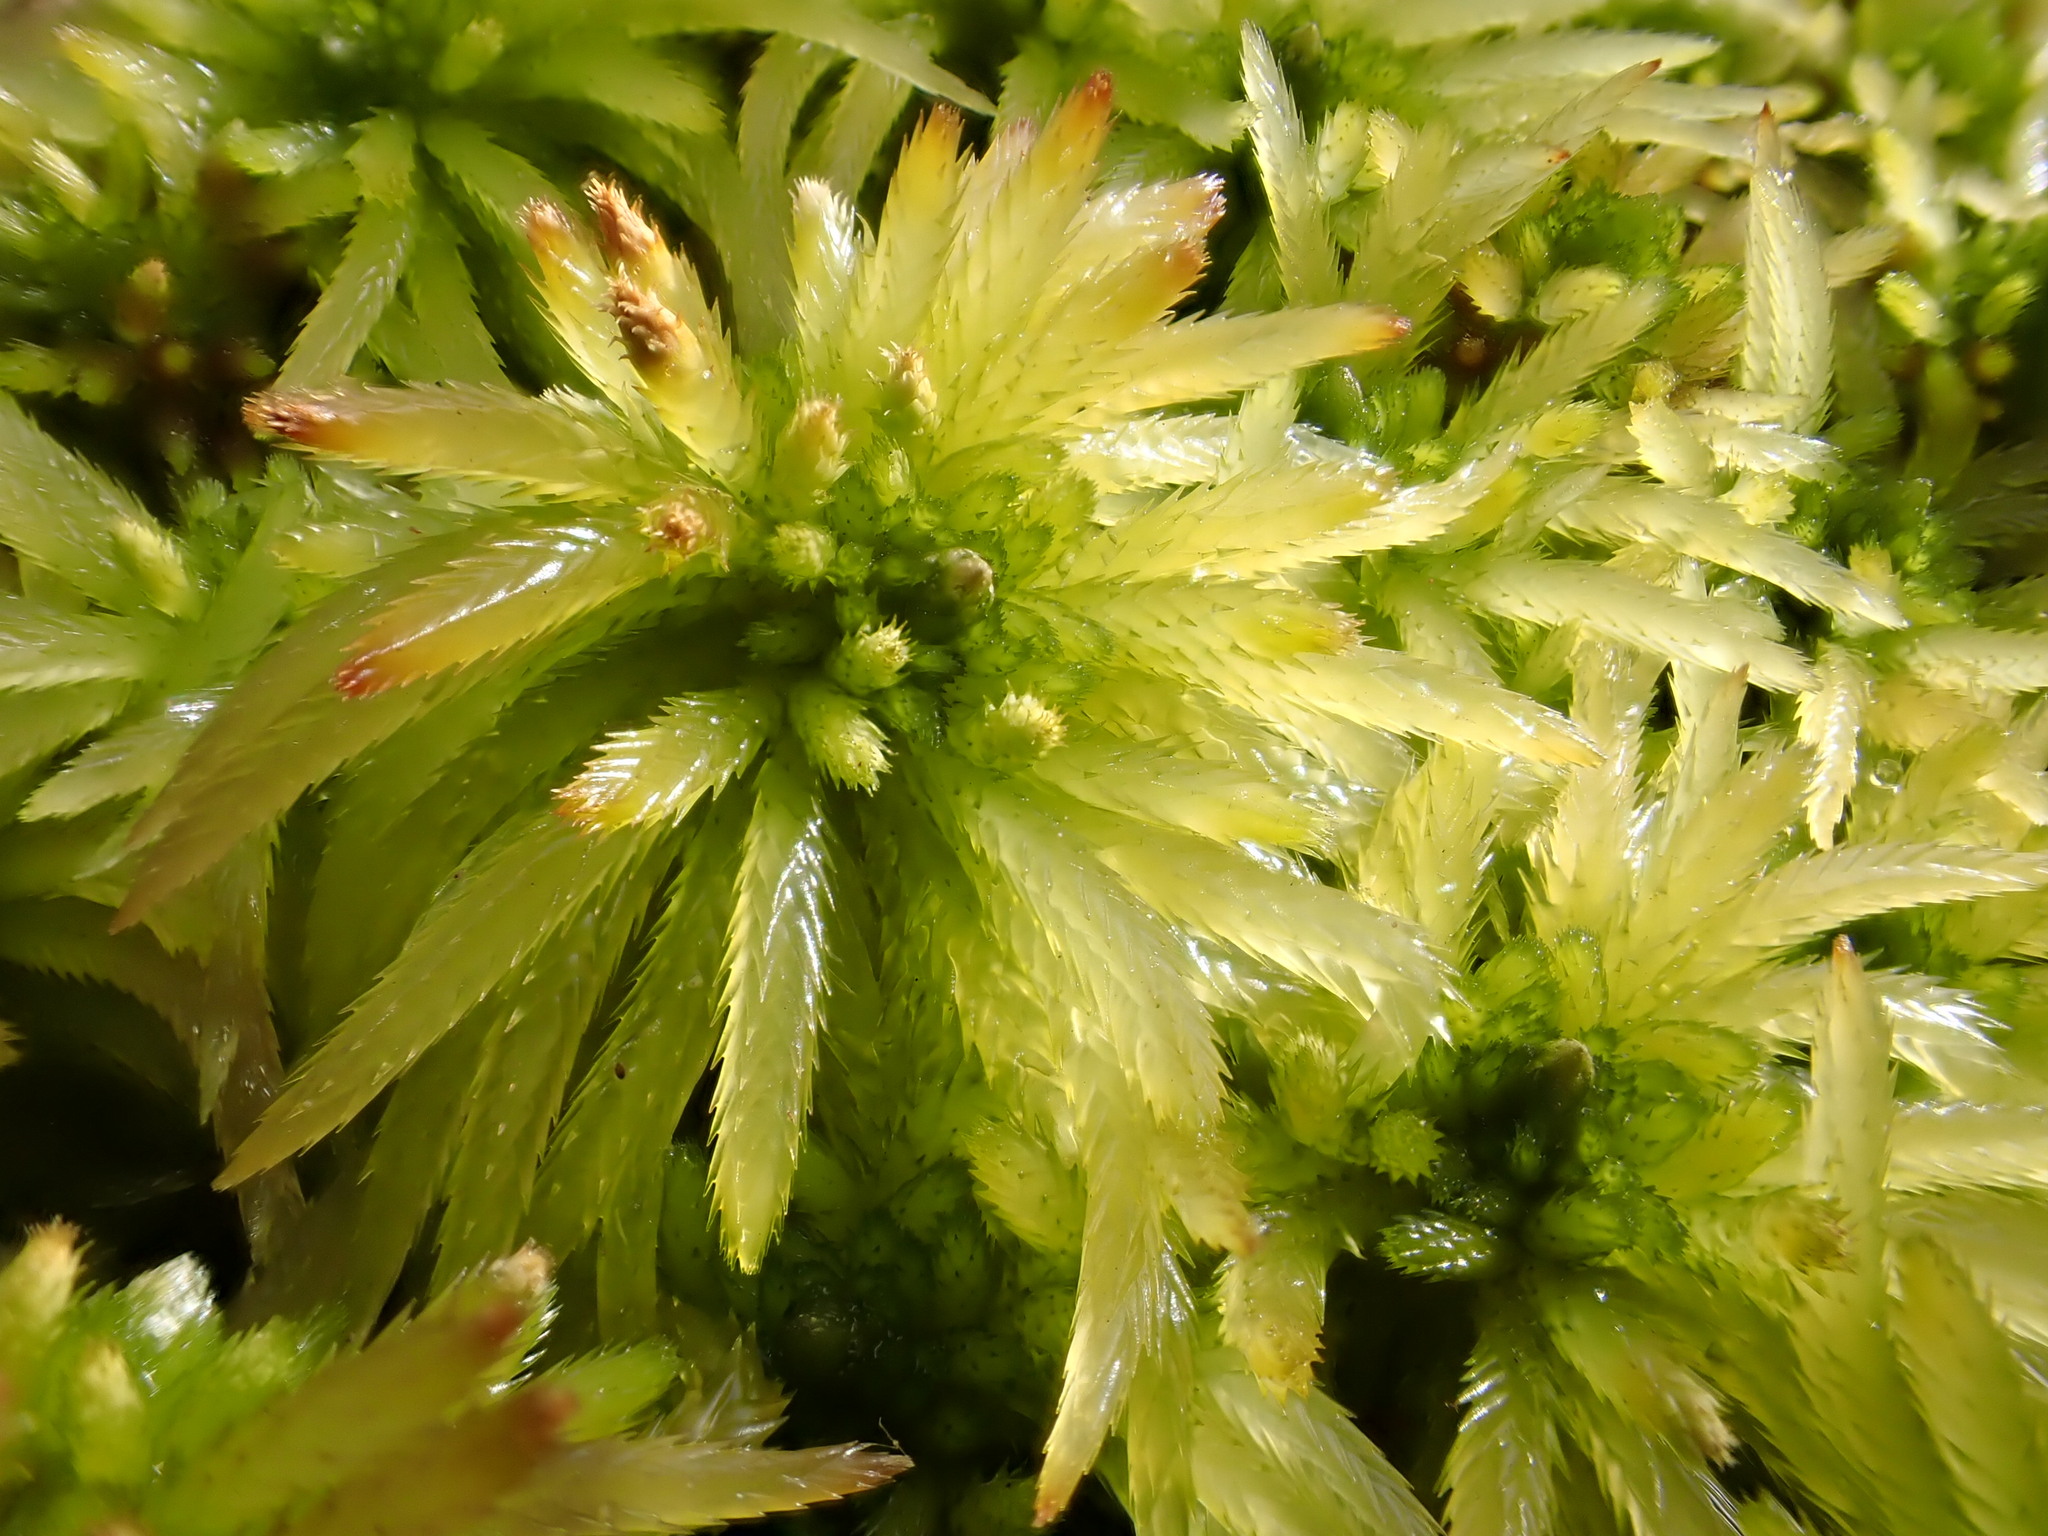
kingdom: Plantae
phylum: Bryophyta
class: Sphagnopsida
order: Sphagnales
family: Sphagnaceae
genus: Sphagnum
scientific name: Sphagnum riparium
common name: Streamside peat moss
